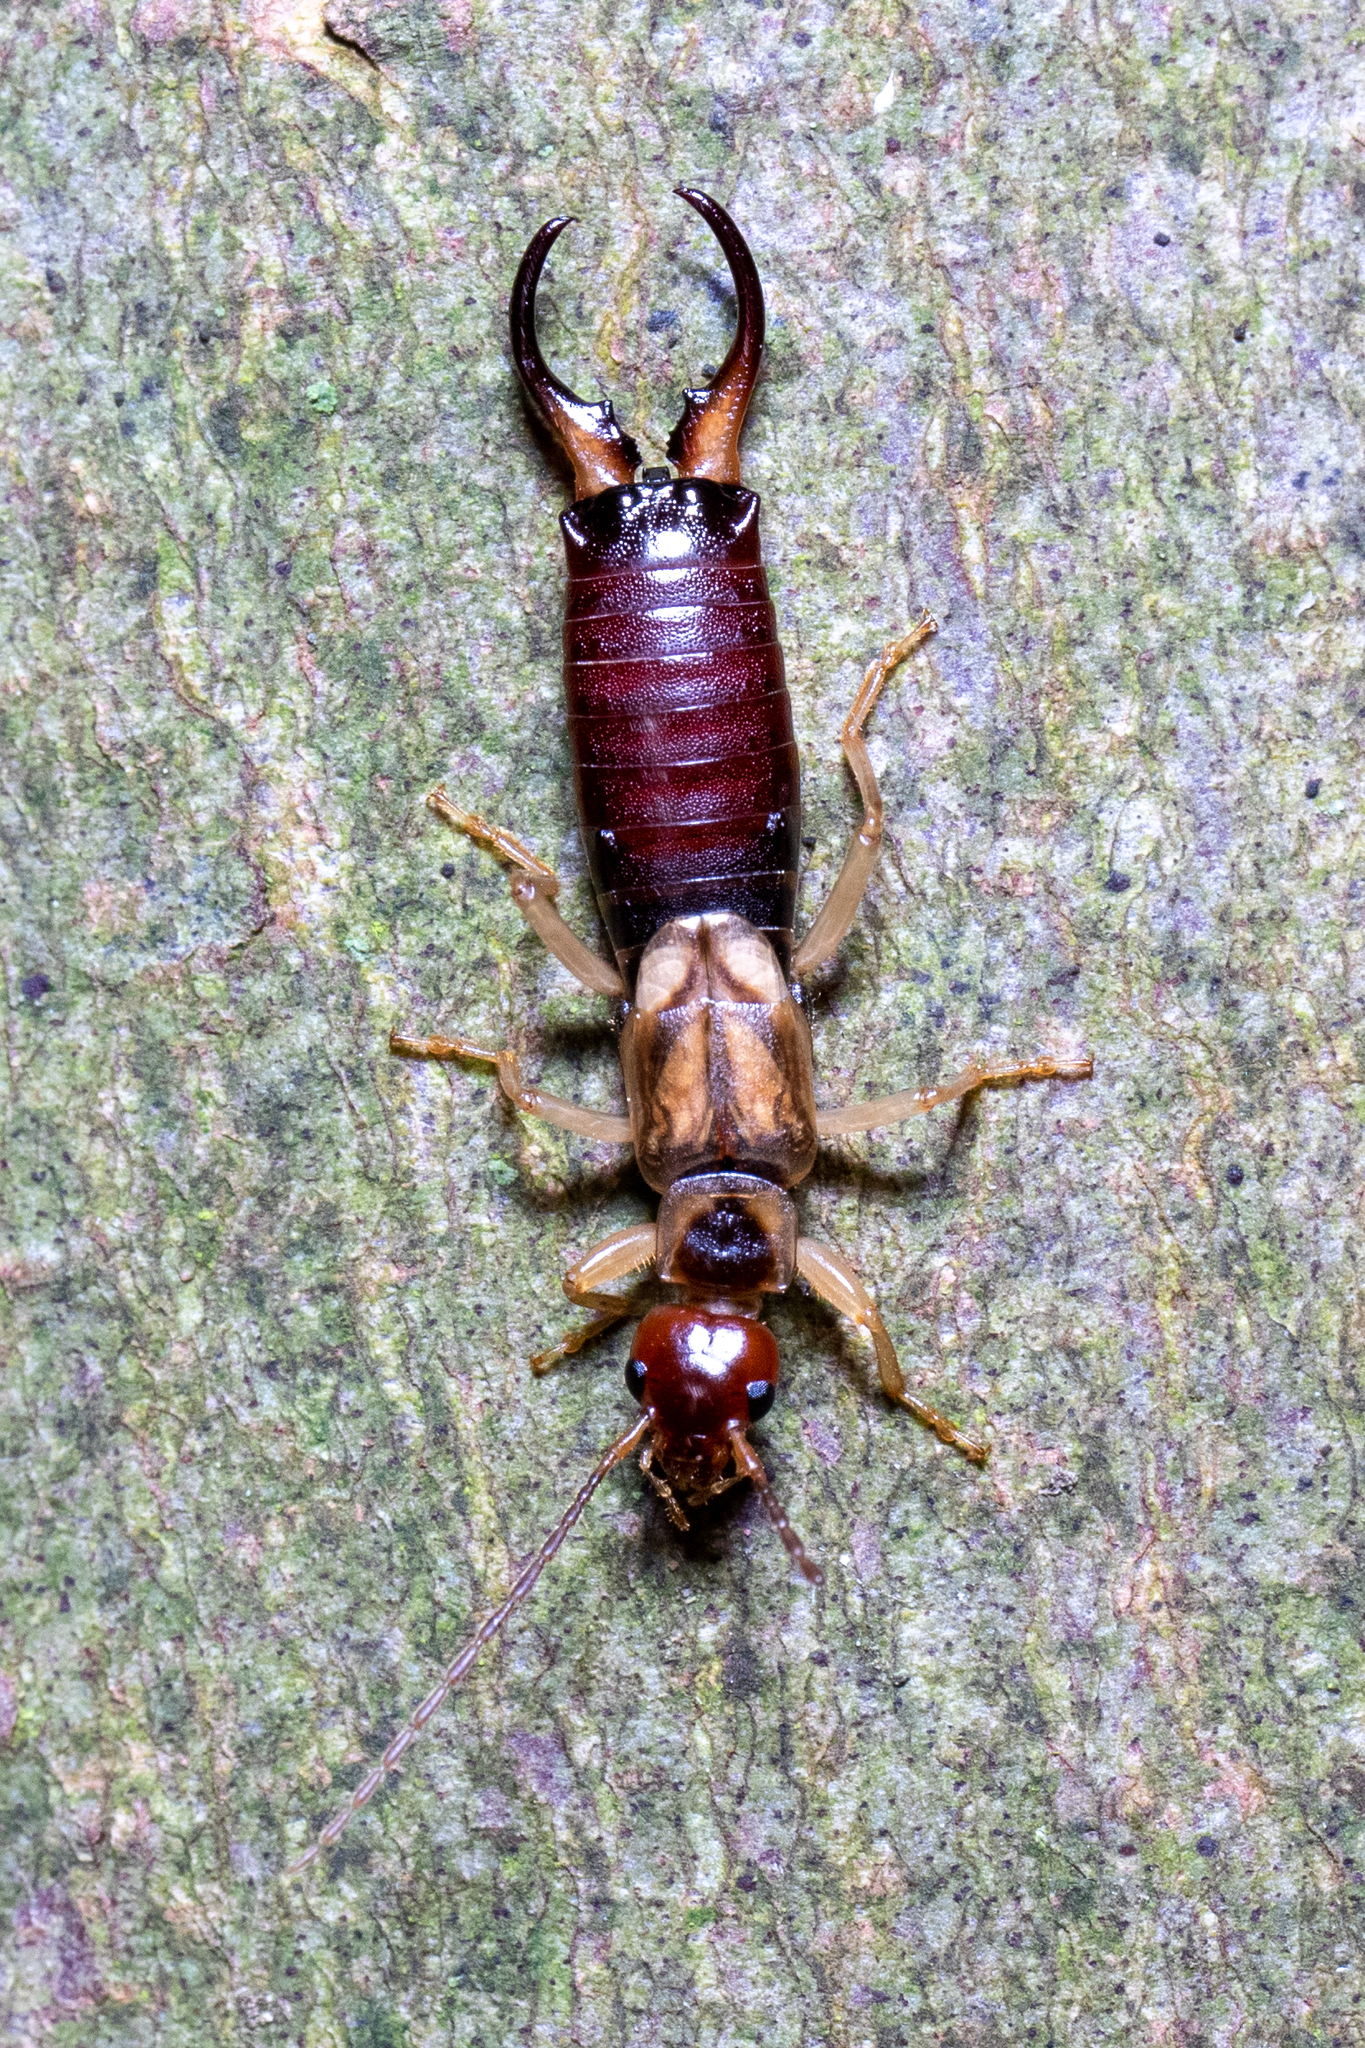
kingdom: Animalia
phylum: Arthropoda
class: Insecta
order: Dermaptera
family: Forficulidae
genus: Forficula
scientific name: Forficula
